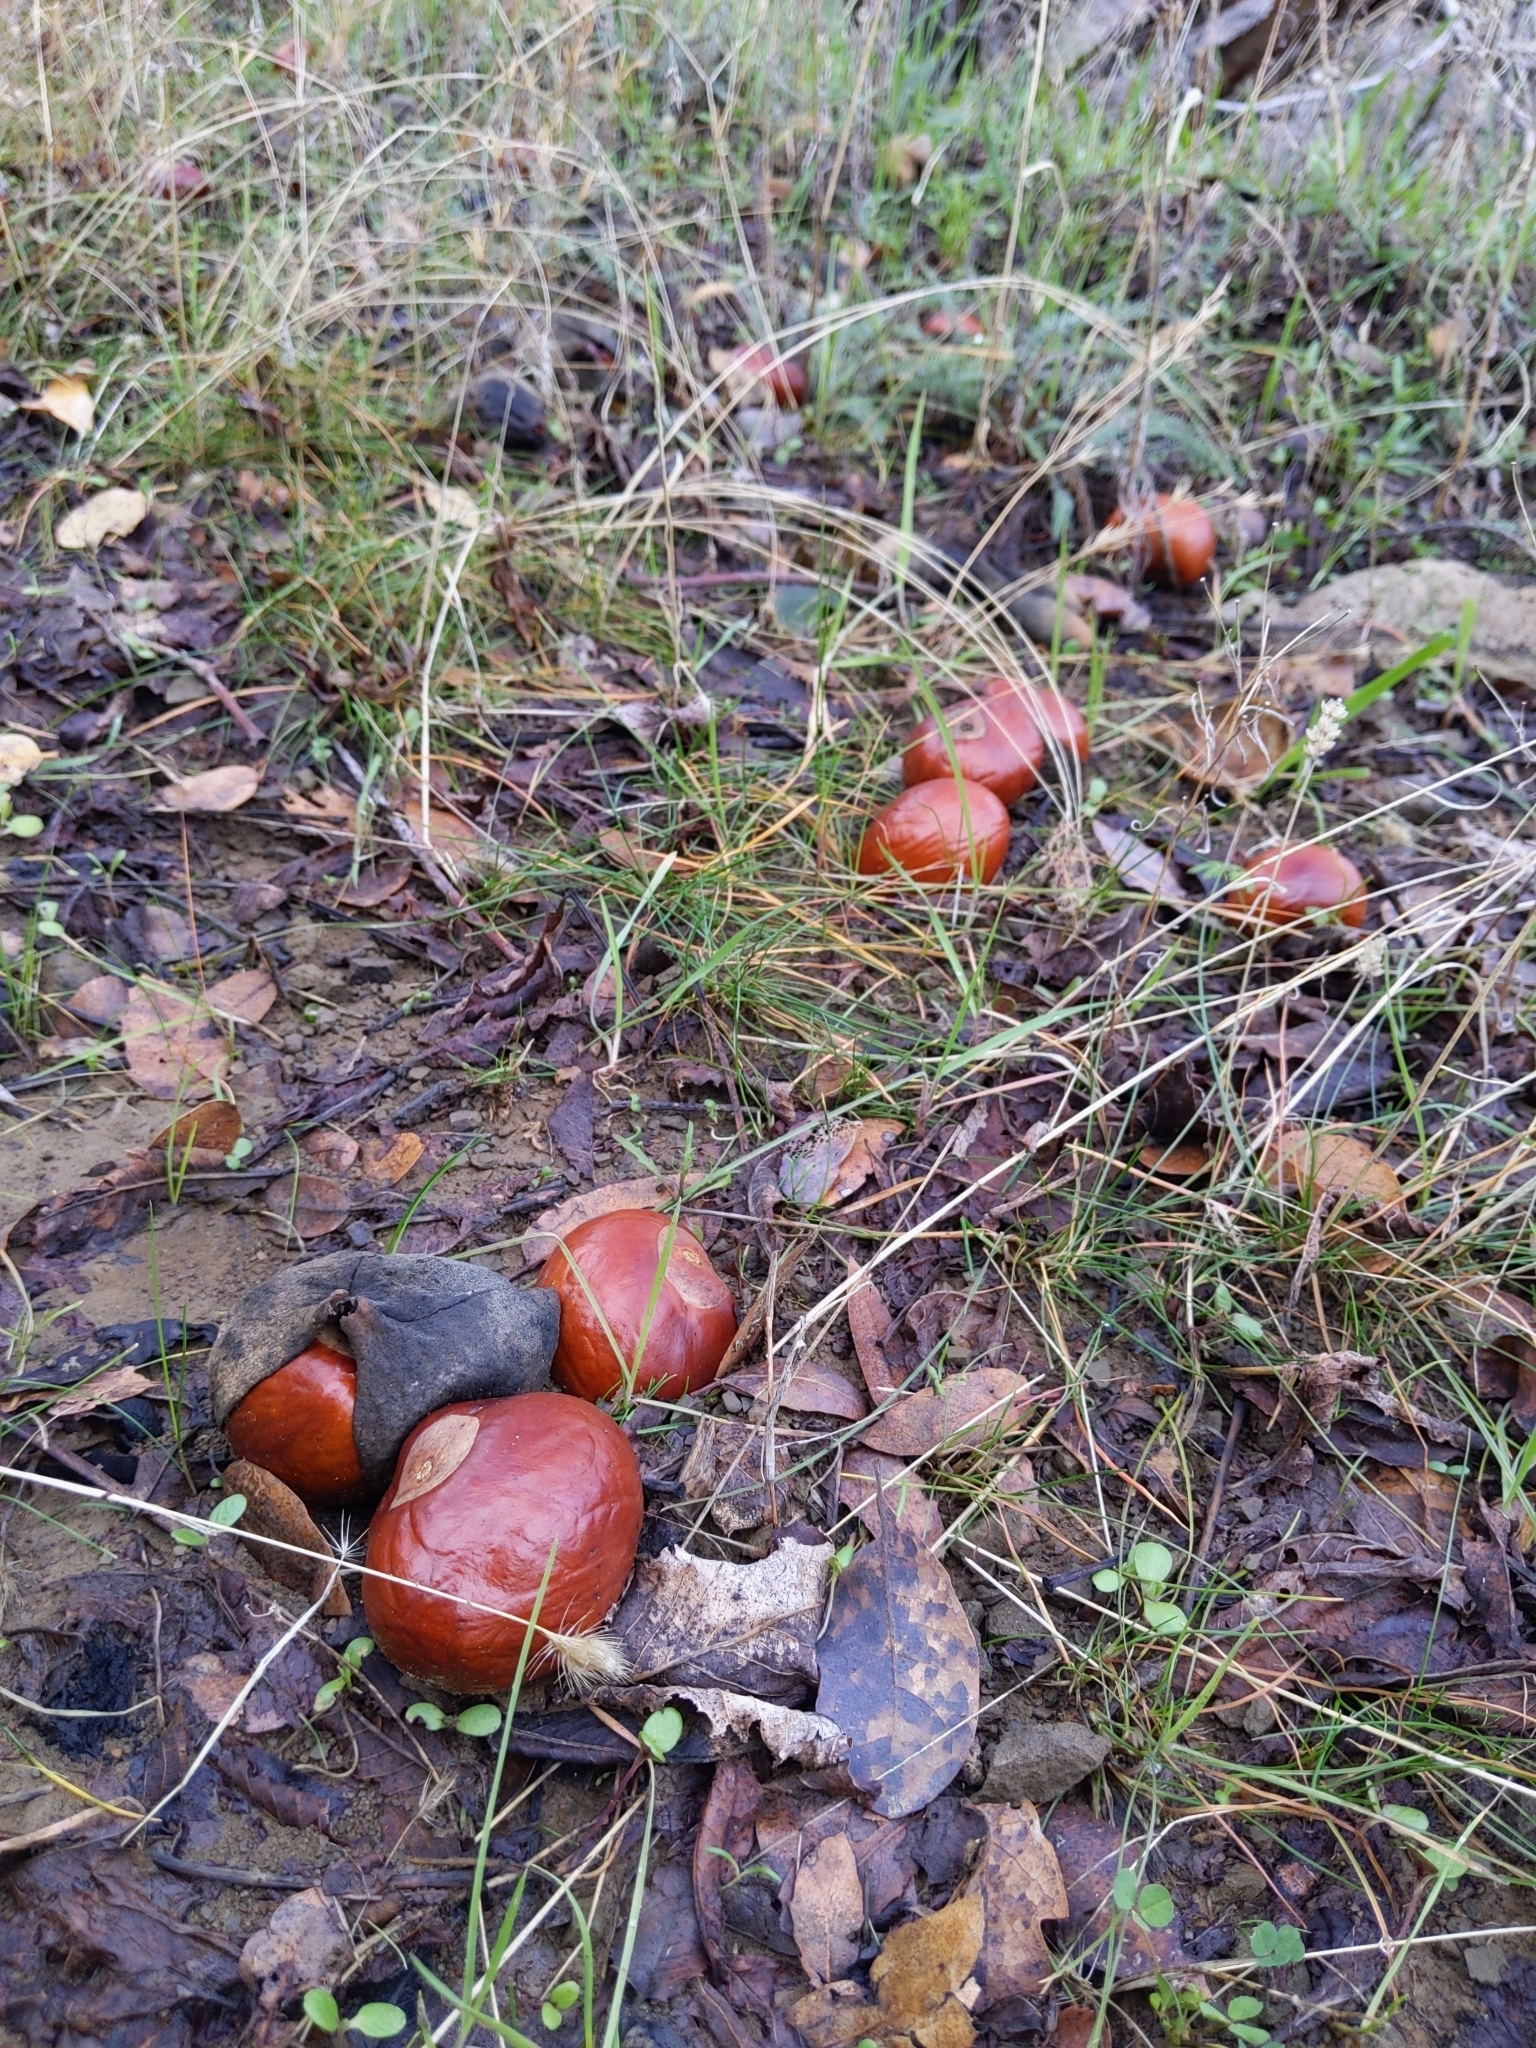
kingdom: Plantae
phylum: Tracheophyta
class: Magnoliopsida
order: Sapindales
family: Sapindaceae
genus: Aesculus
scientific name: Aesculus californica
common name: California buckeye
